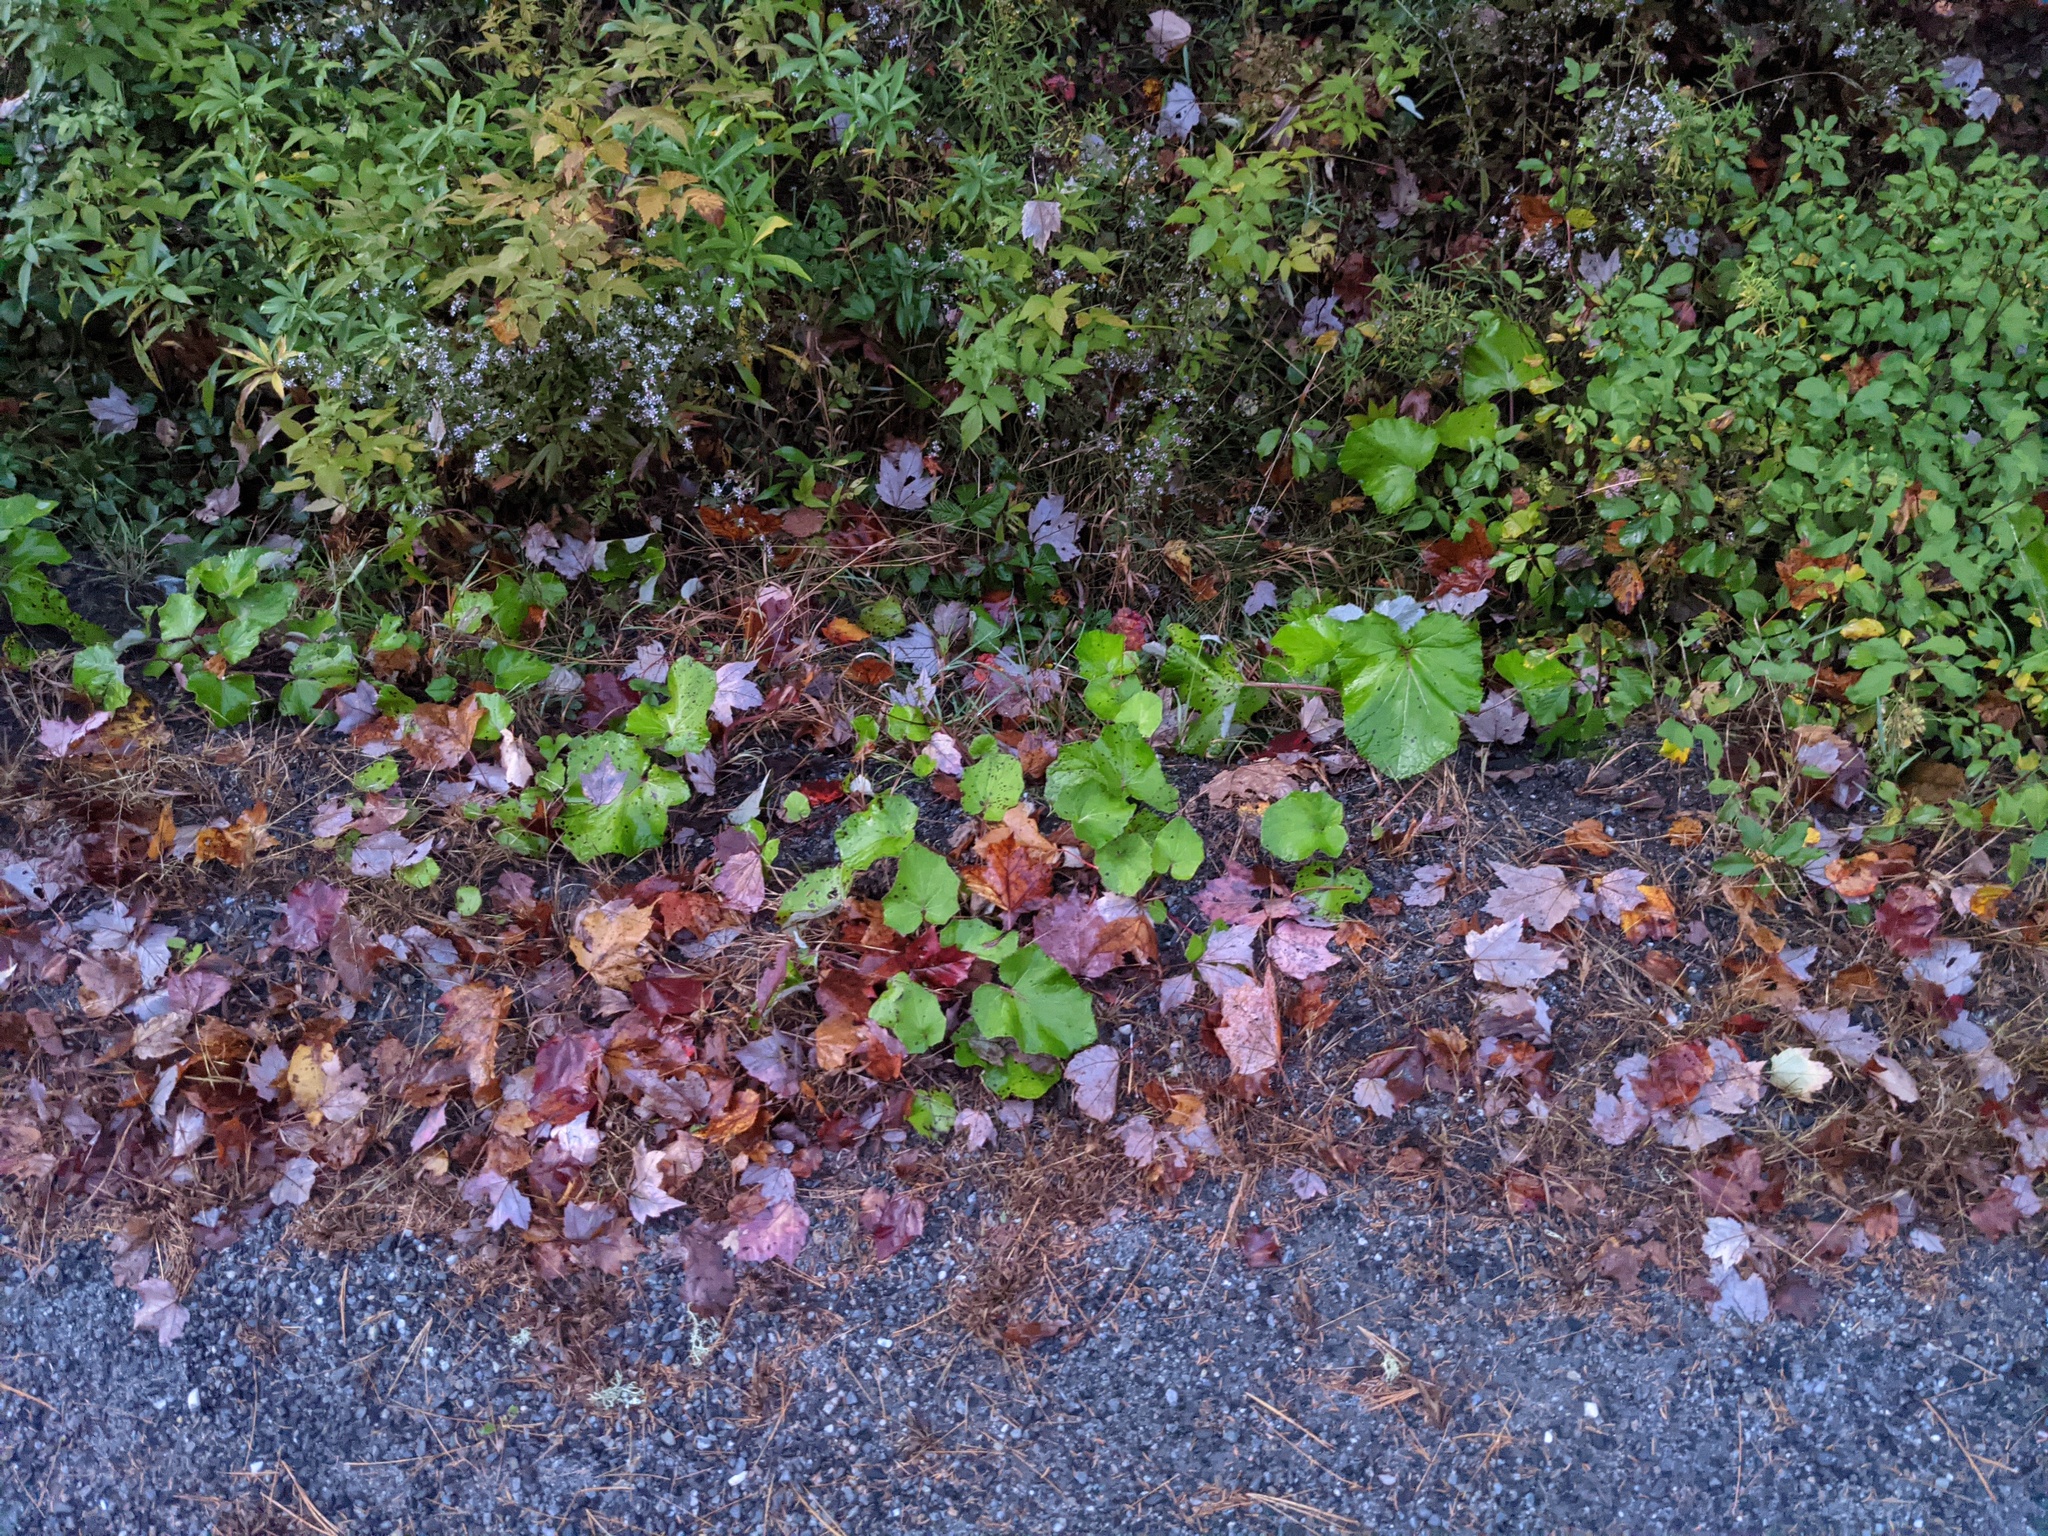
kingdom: Plantae
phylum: Tracheophyta
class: Magnoliopsida
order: Asterales
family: Asteraceae
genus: Tussilago
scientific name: Tussilago farfara
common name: Coltsfoot
